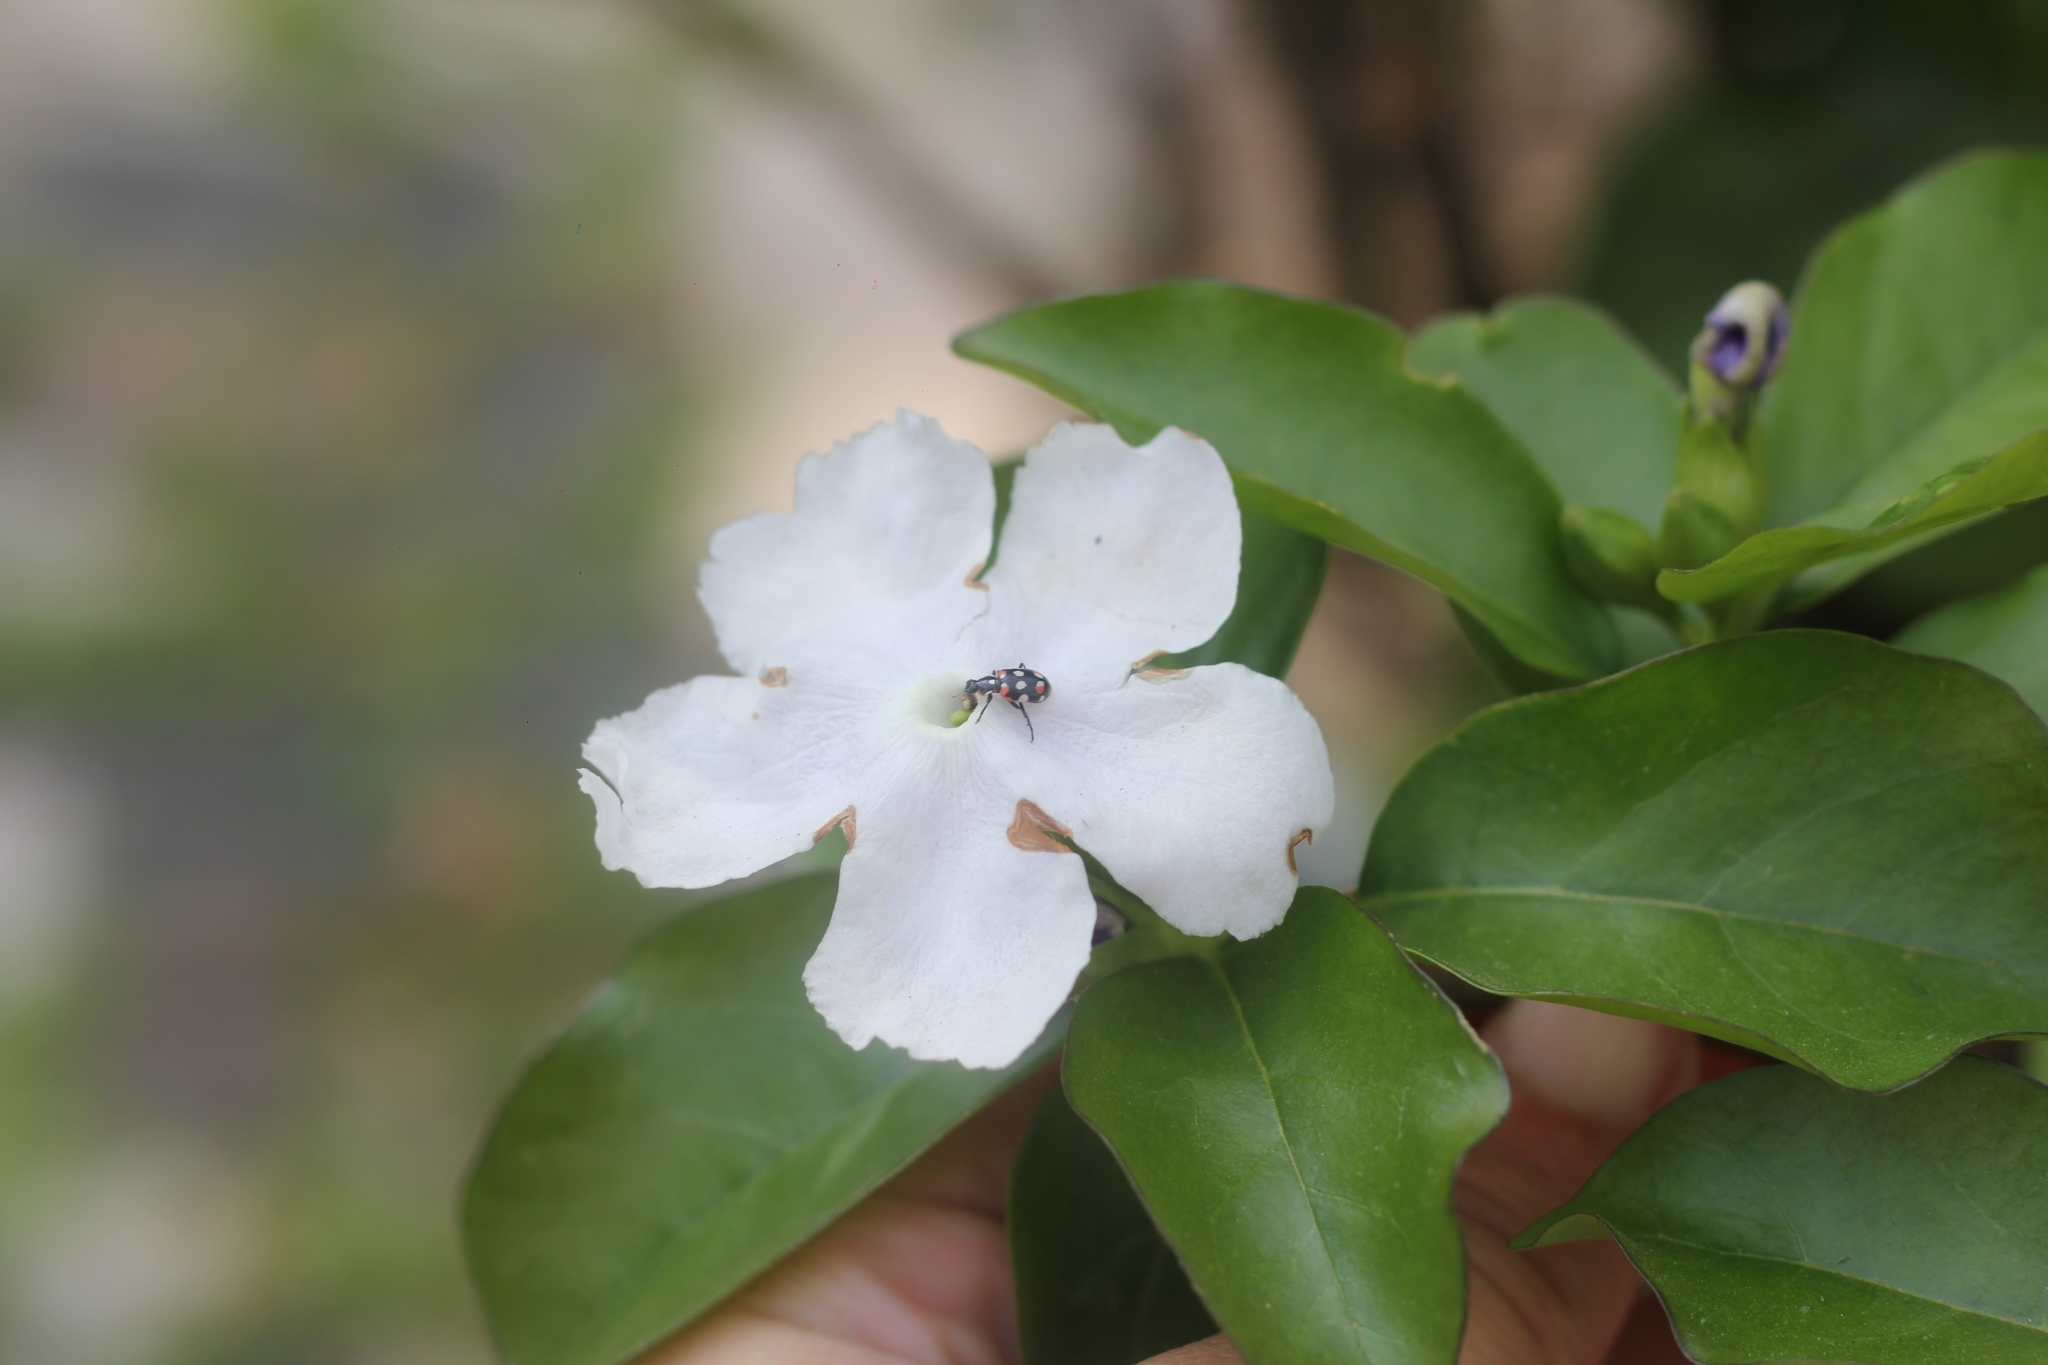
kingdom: Animalia
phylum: Arthropoda
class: Insecta
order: Coleoptera
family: Coccinellidae
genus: Eriopis
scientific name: Eriopis connexa
